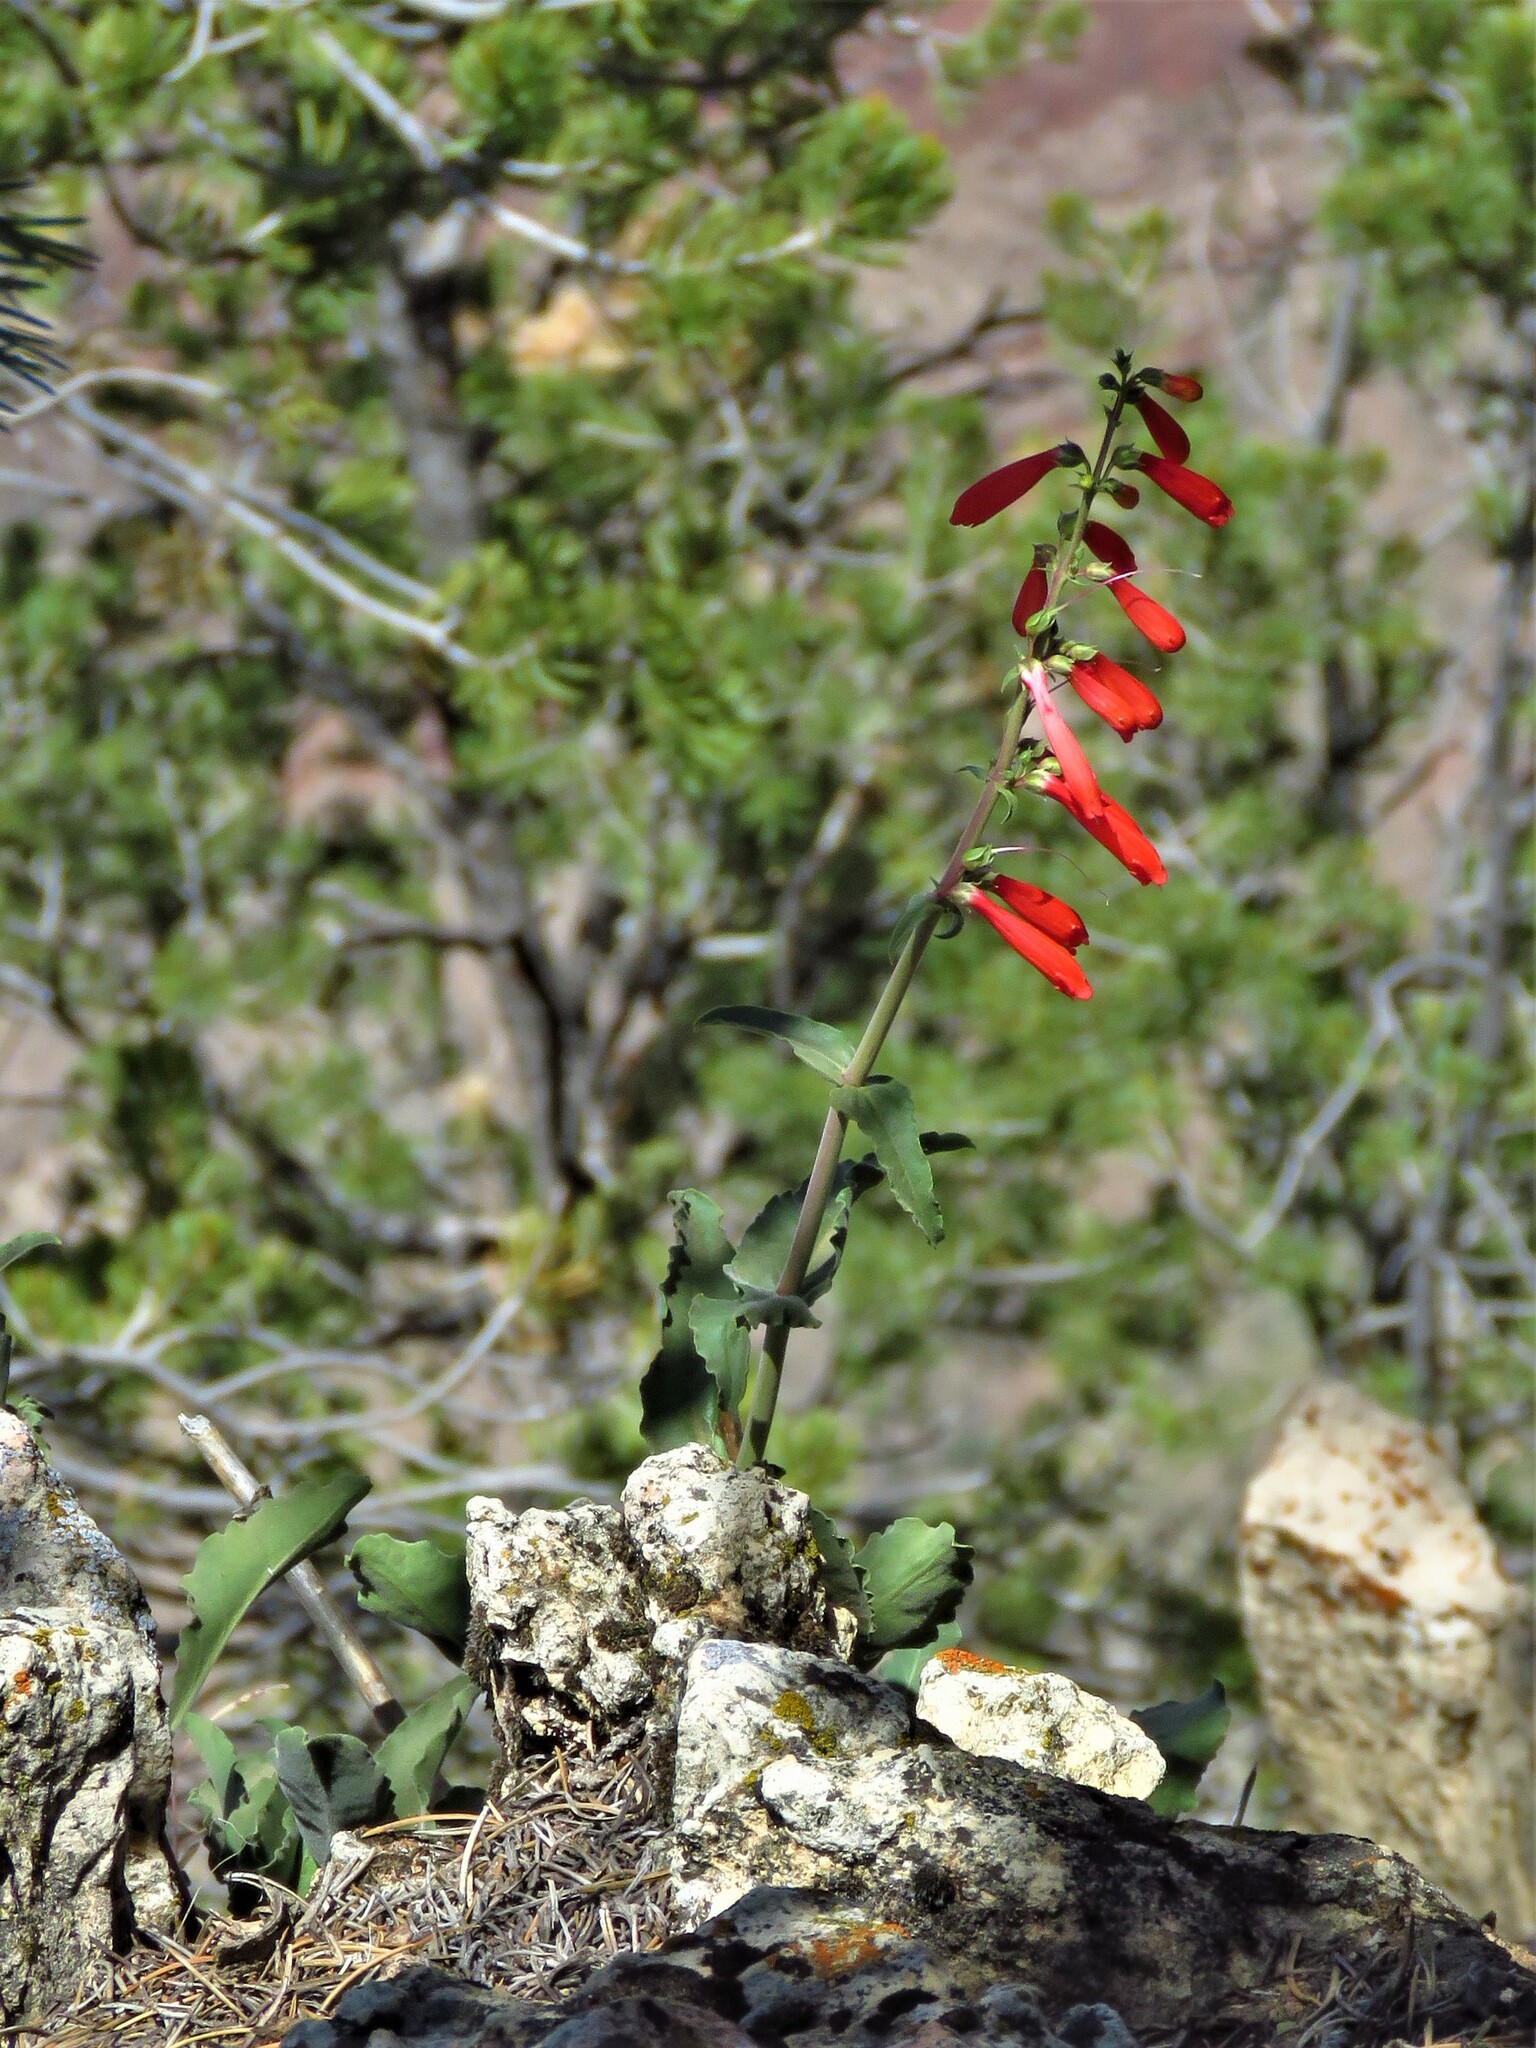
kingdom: Plantae
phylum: Tracheophyta
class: Magnoliopsida
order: Lamiales
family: Plantaginaceae
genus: Penstemon
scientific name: Penstemon eatonii
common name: Eaton's penstemon
